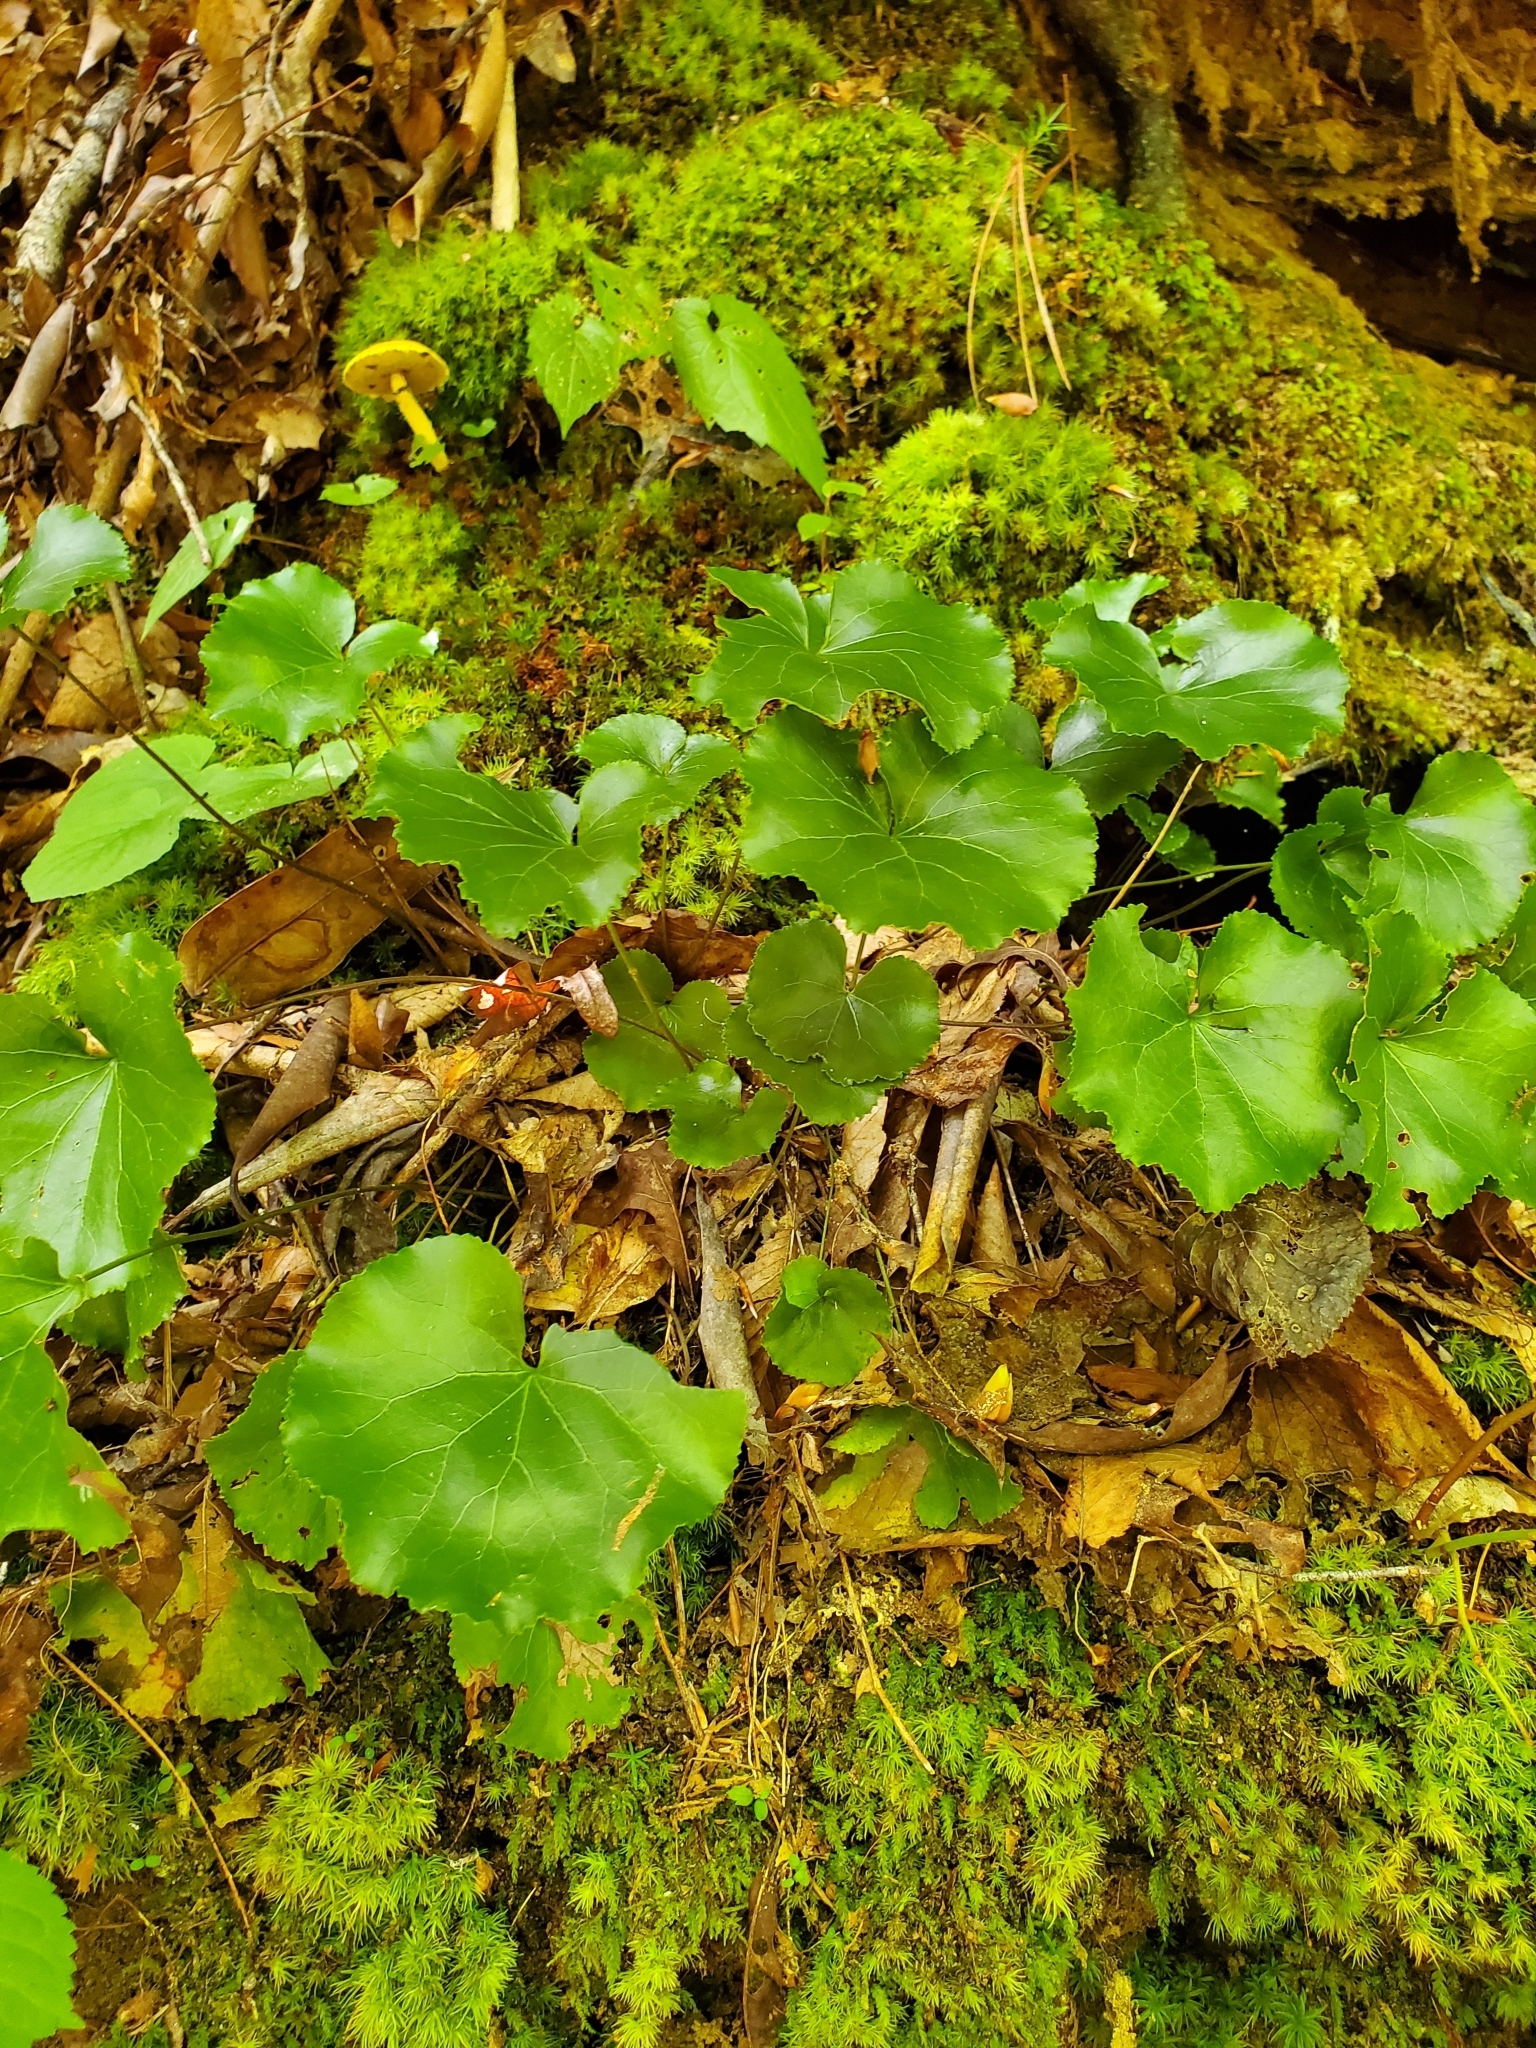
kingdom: Plantae
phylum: Tracheophyta
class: Magnoliopsida
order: Ericales
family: Diapensiaceae
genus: Galax
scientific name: Galax urceolata
